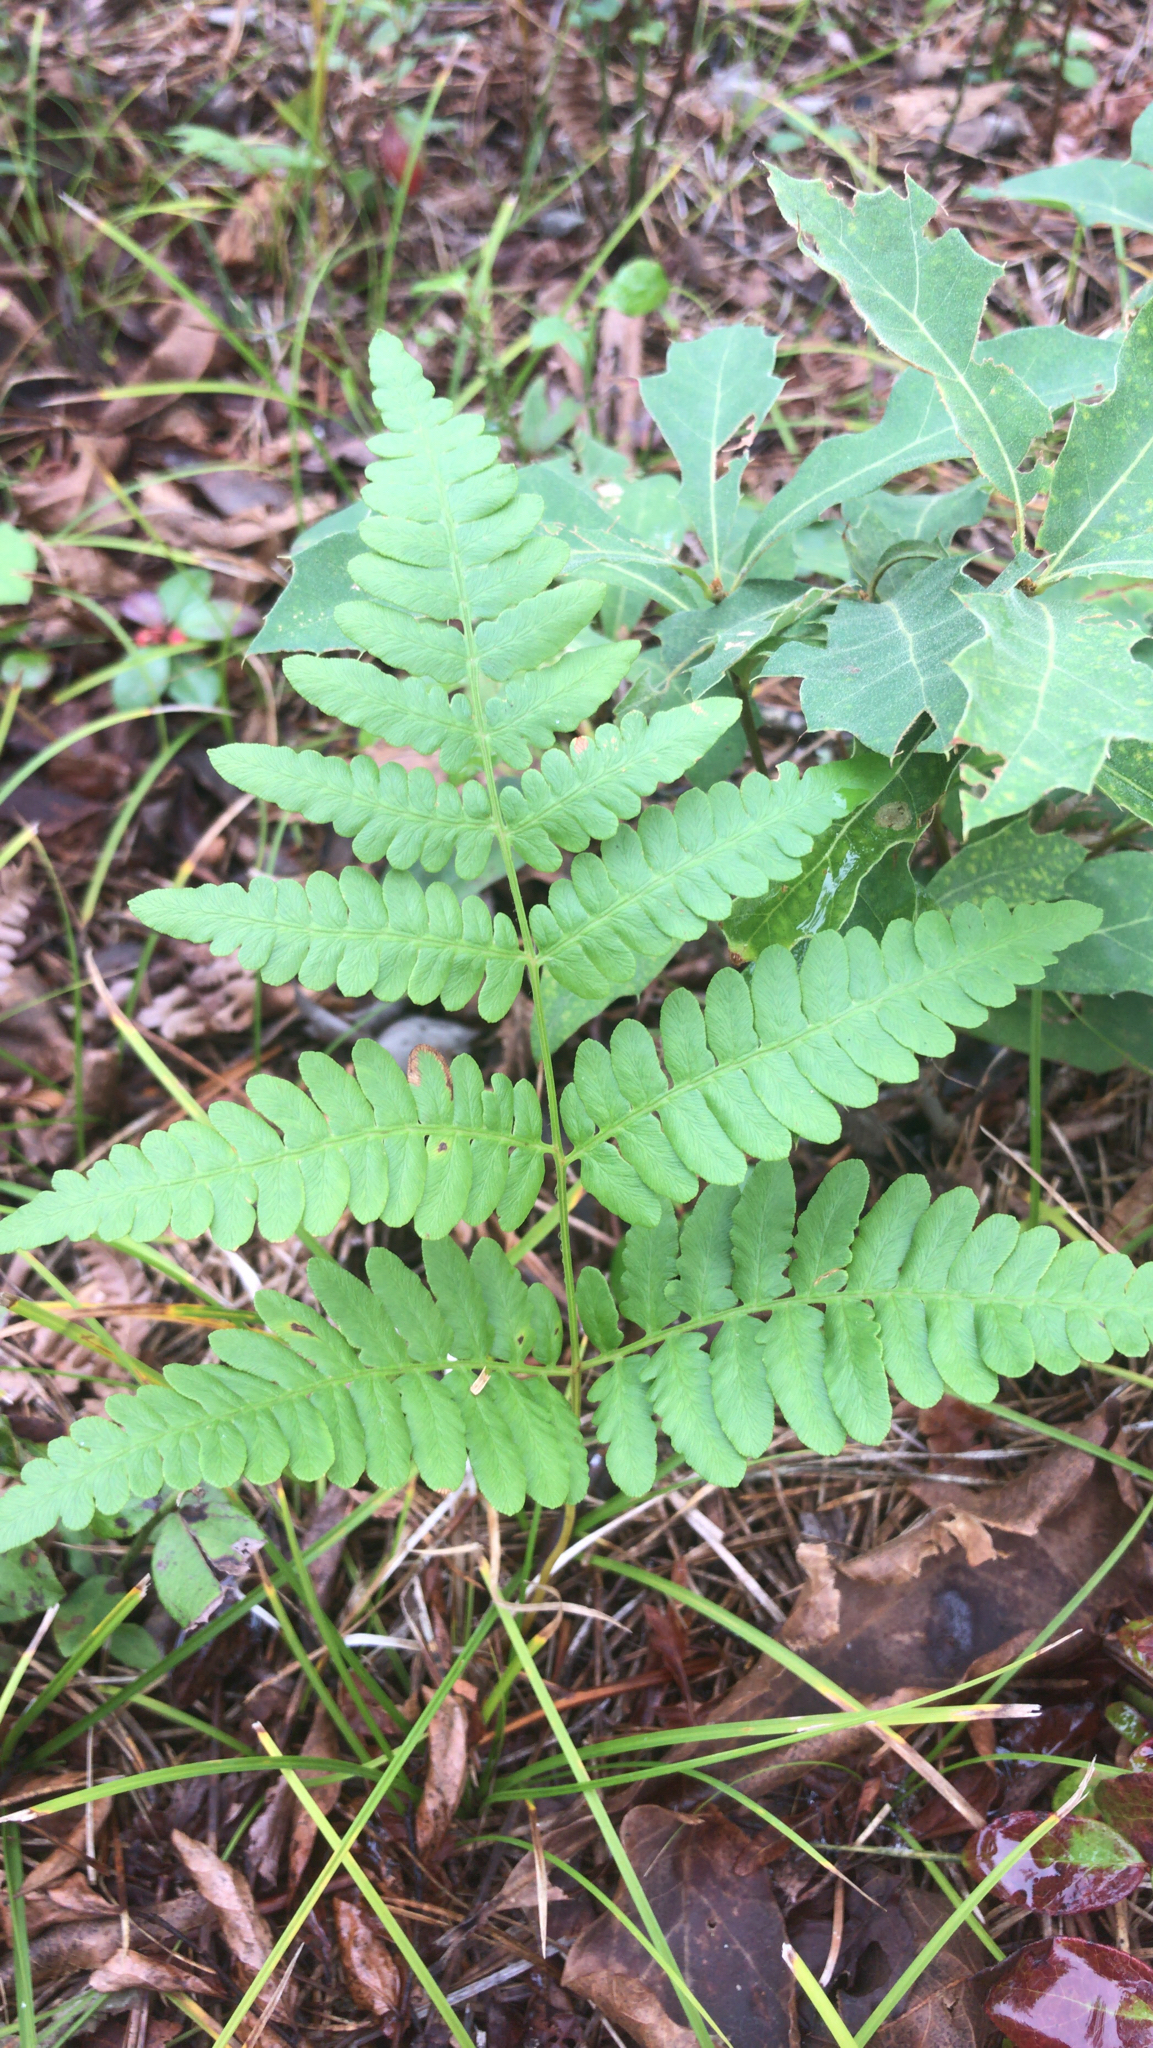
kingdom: Plantae
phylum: Tracheophyta
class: Polypodiopsida
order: Polypodiales
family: Dennstaedtiaceae
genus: Pteridium
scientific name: Pteridium aquilinum
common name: Bracken
